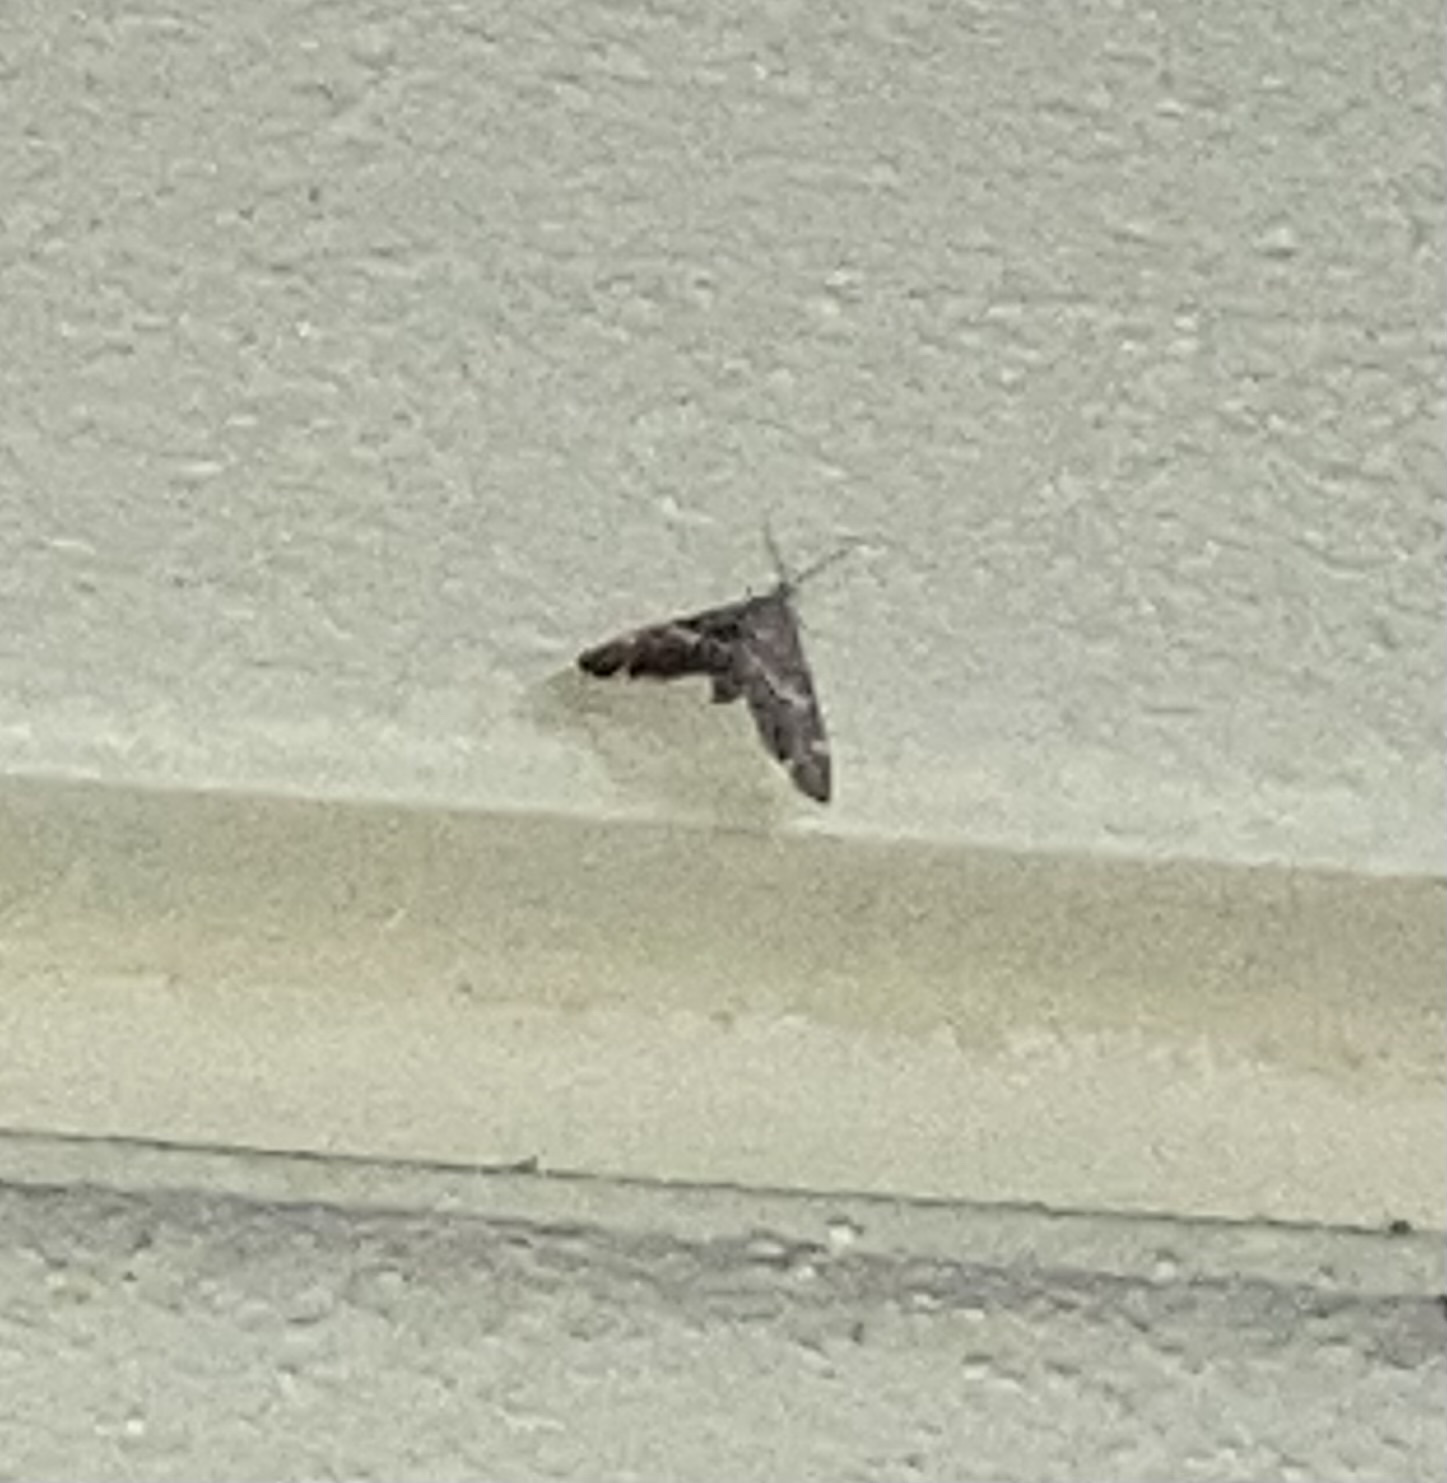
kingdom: Animalia
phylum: Arthropoda
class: Insecta
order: Lepidoptera
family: Crambidae
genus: Spoladea
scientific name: Spoladea recurvalis
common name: Beet webworm moth
